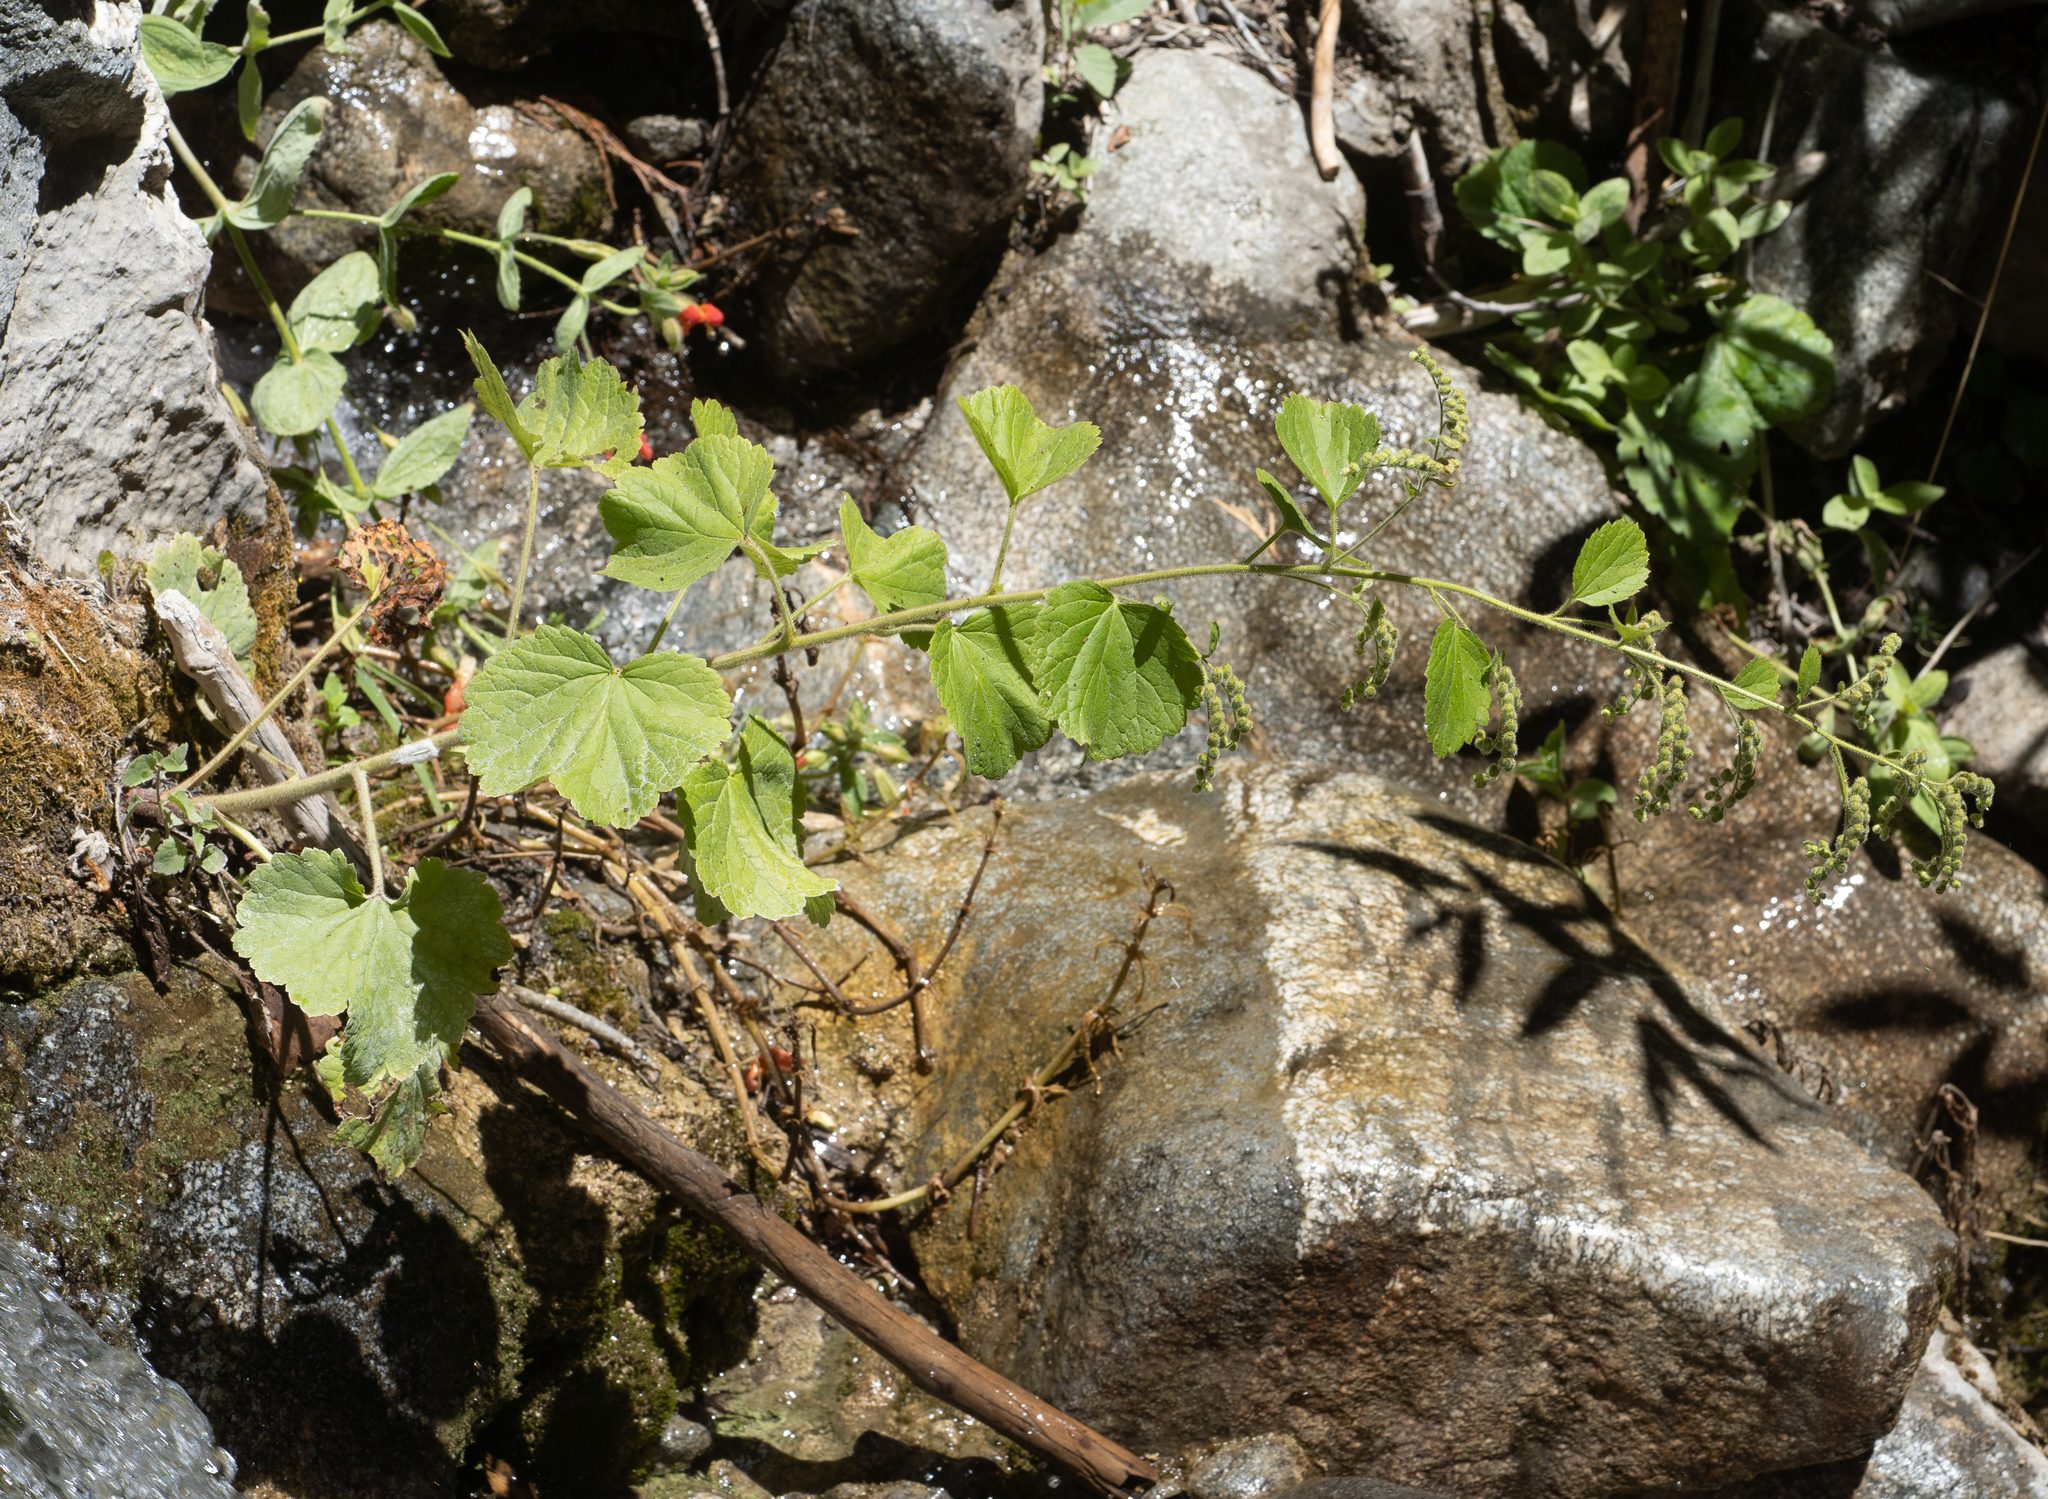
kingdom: Plantae
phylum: Tracheophyta
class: Magnoliopsida
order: Saxifragales
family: Saxifragaceae
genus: Boykinia
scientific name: Boykinia rotundifolia
